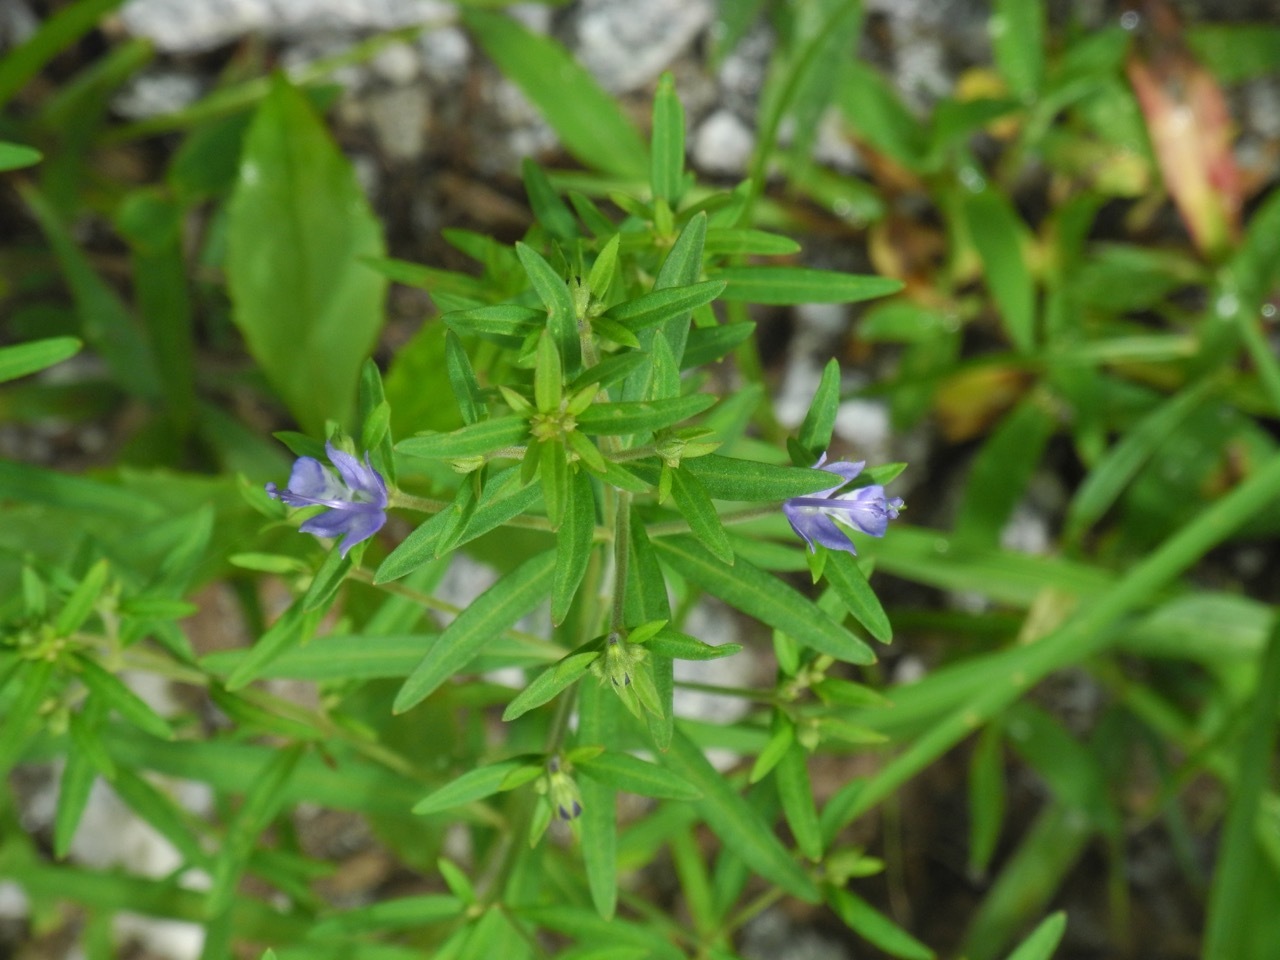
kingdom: Plantae
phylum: Tracheophyta
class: Magnoliopsida
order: Lamiales
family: Lamiaceae
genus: Trichostema
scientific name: Trichostema setaceum
